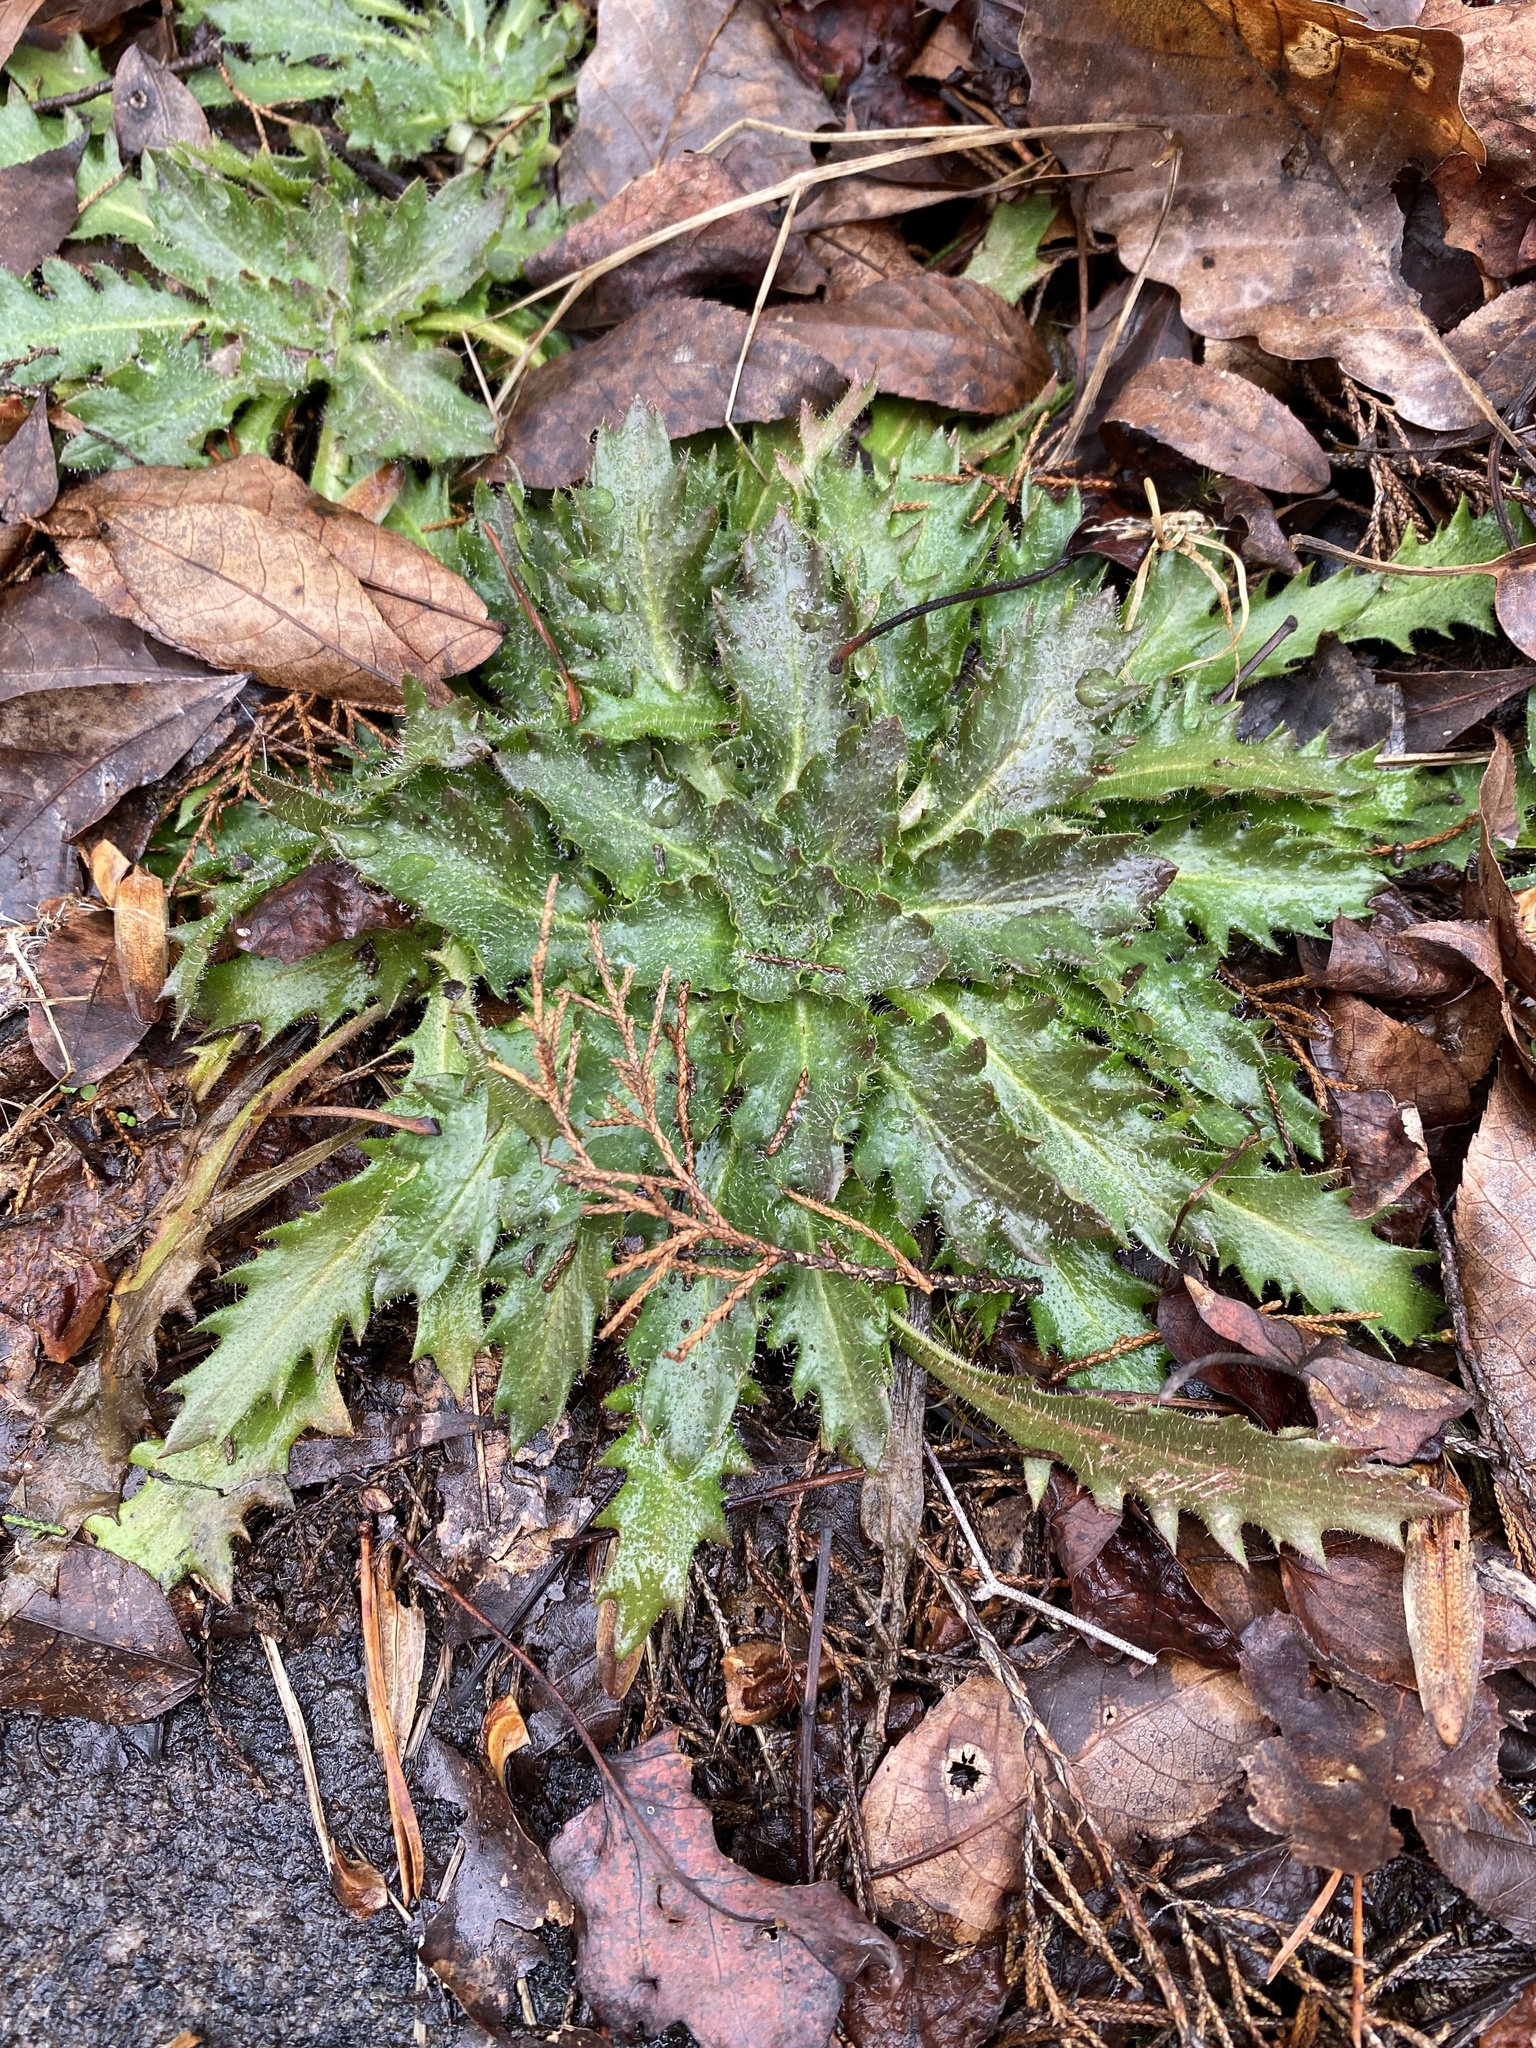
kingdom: Plantae
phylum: Tracheophyta
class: Magnoliopsida
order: Saxifragales
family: Saxifragaceae
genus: Micranthes
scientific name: Micranthes petiolaris
